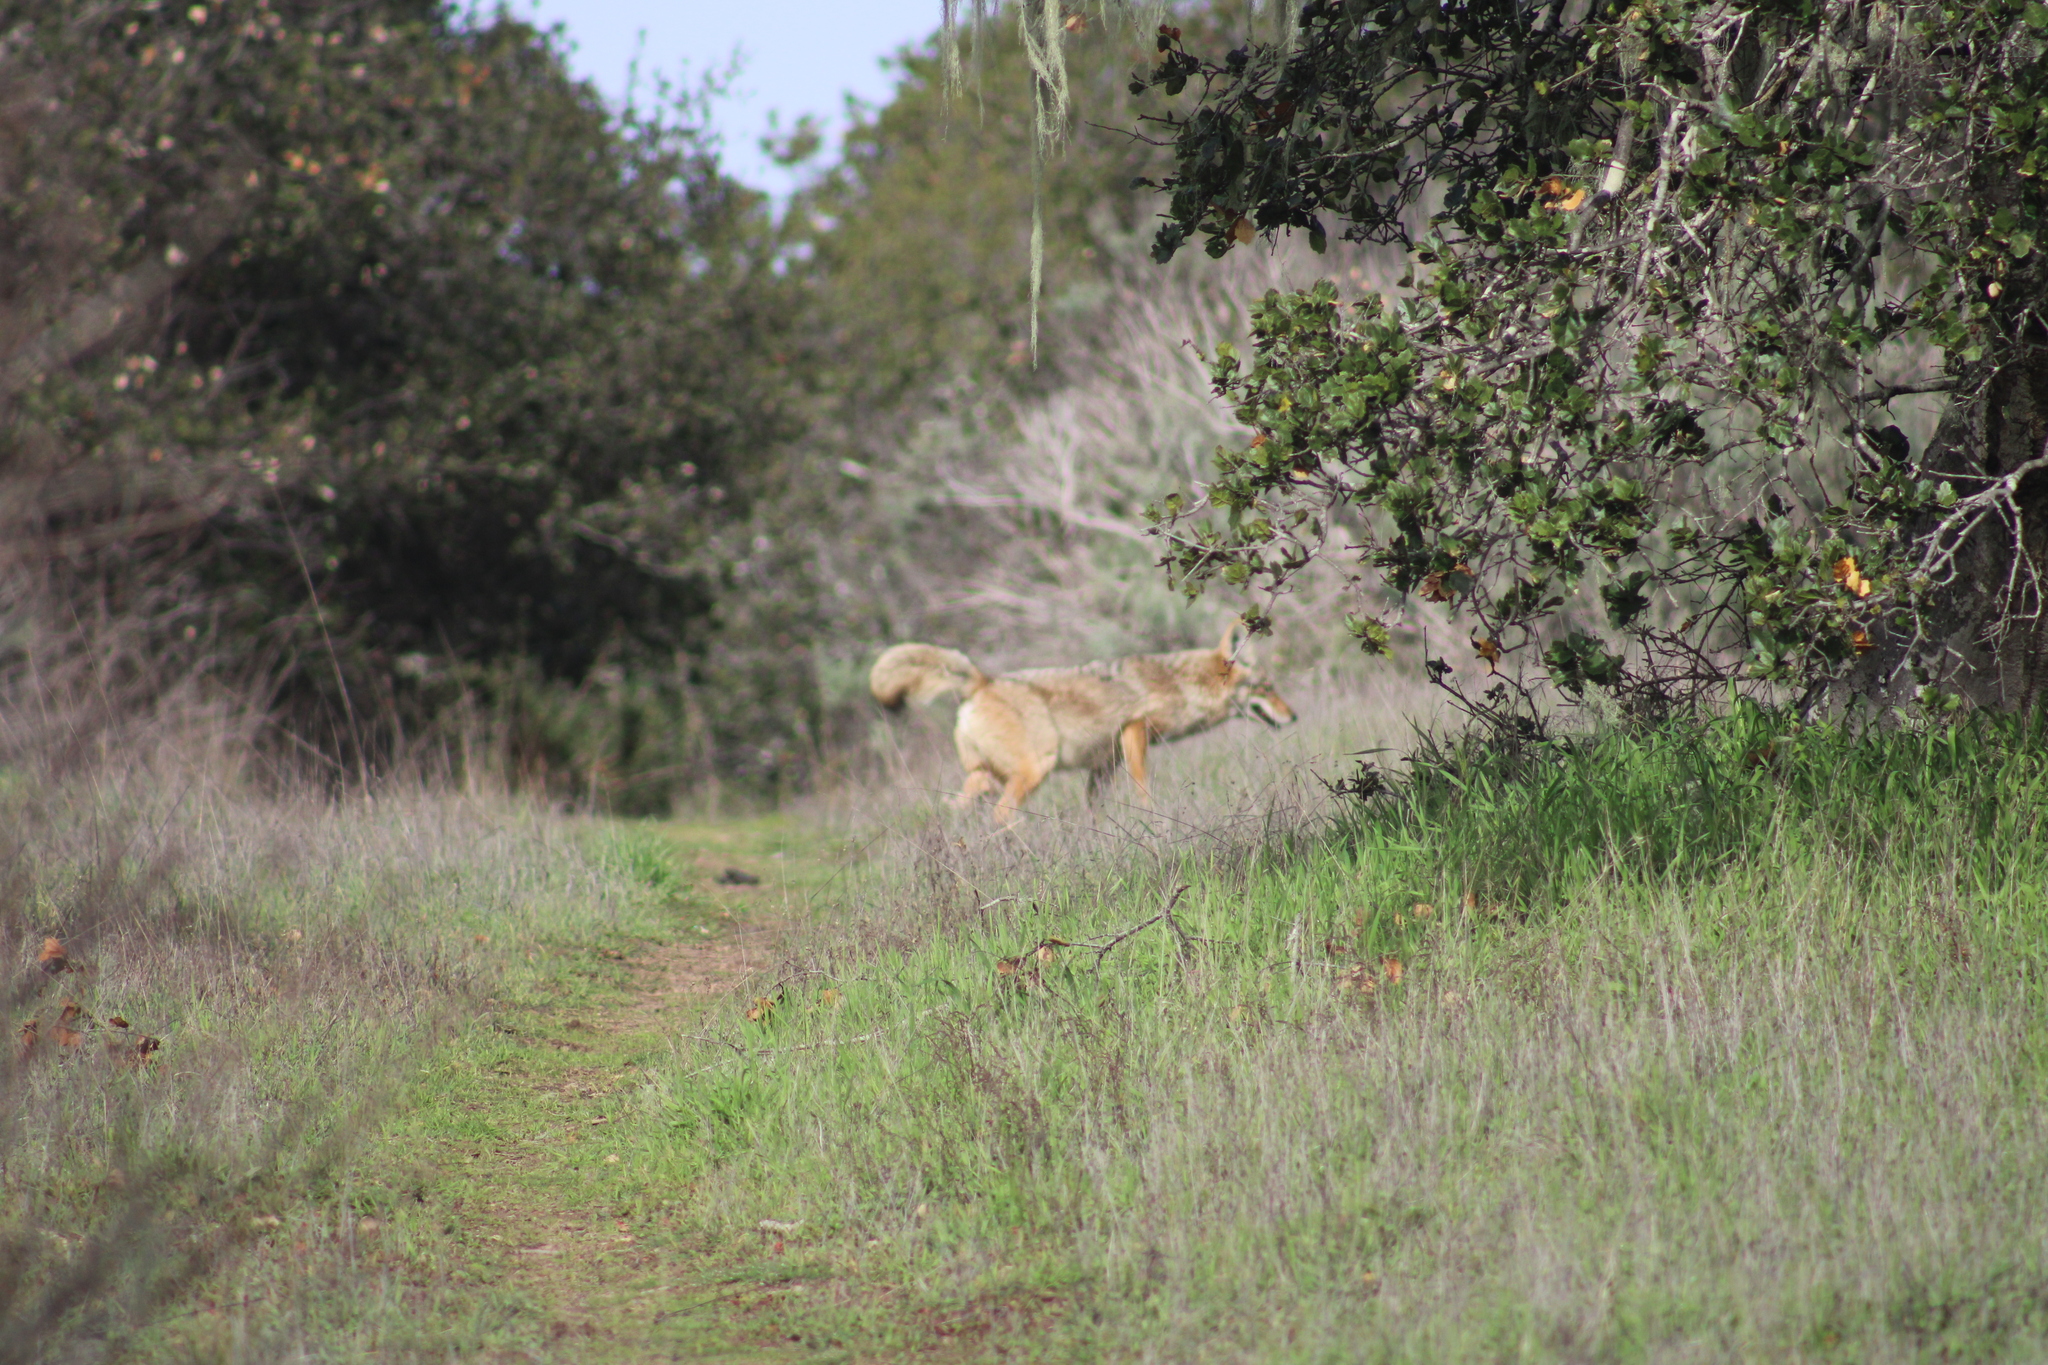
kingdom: Animalia
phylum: Chordata
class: Mammalia
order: Carnivora
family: Canidae
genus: Canis
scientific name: Canis latrans
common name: Coyote
